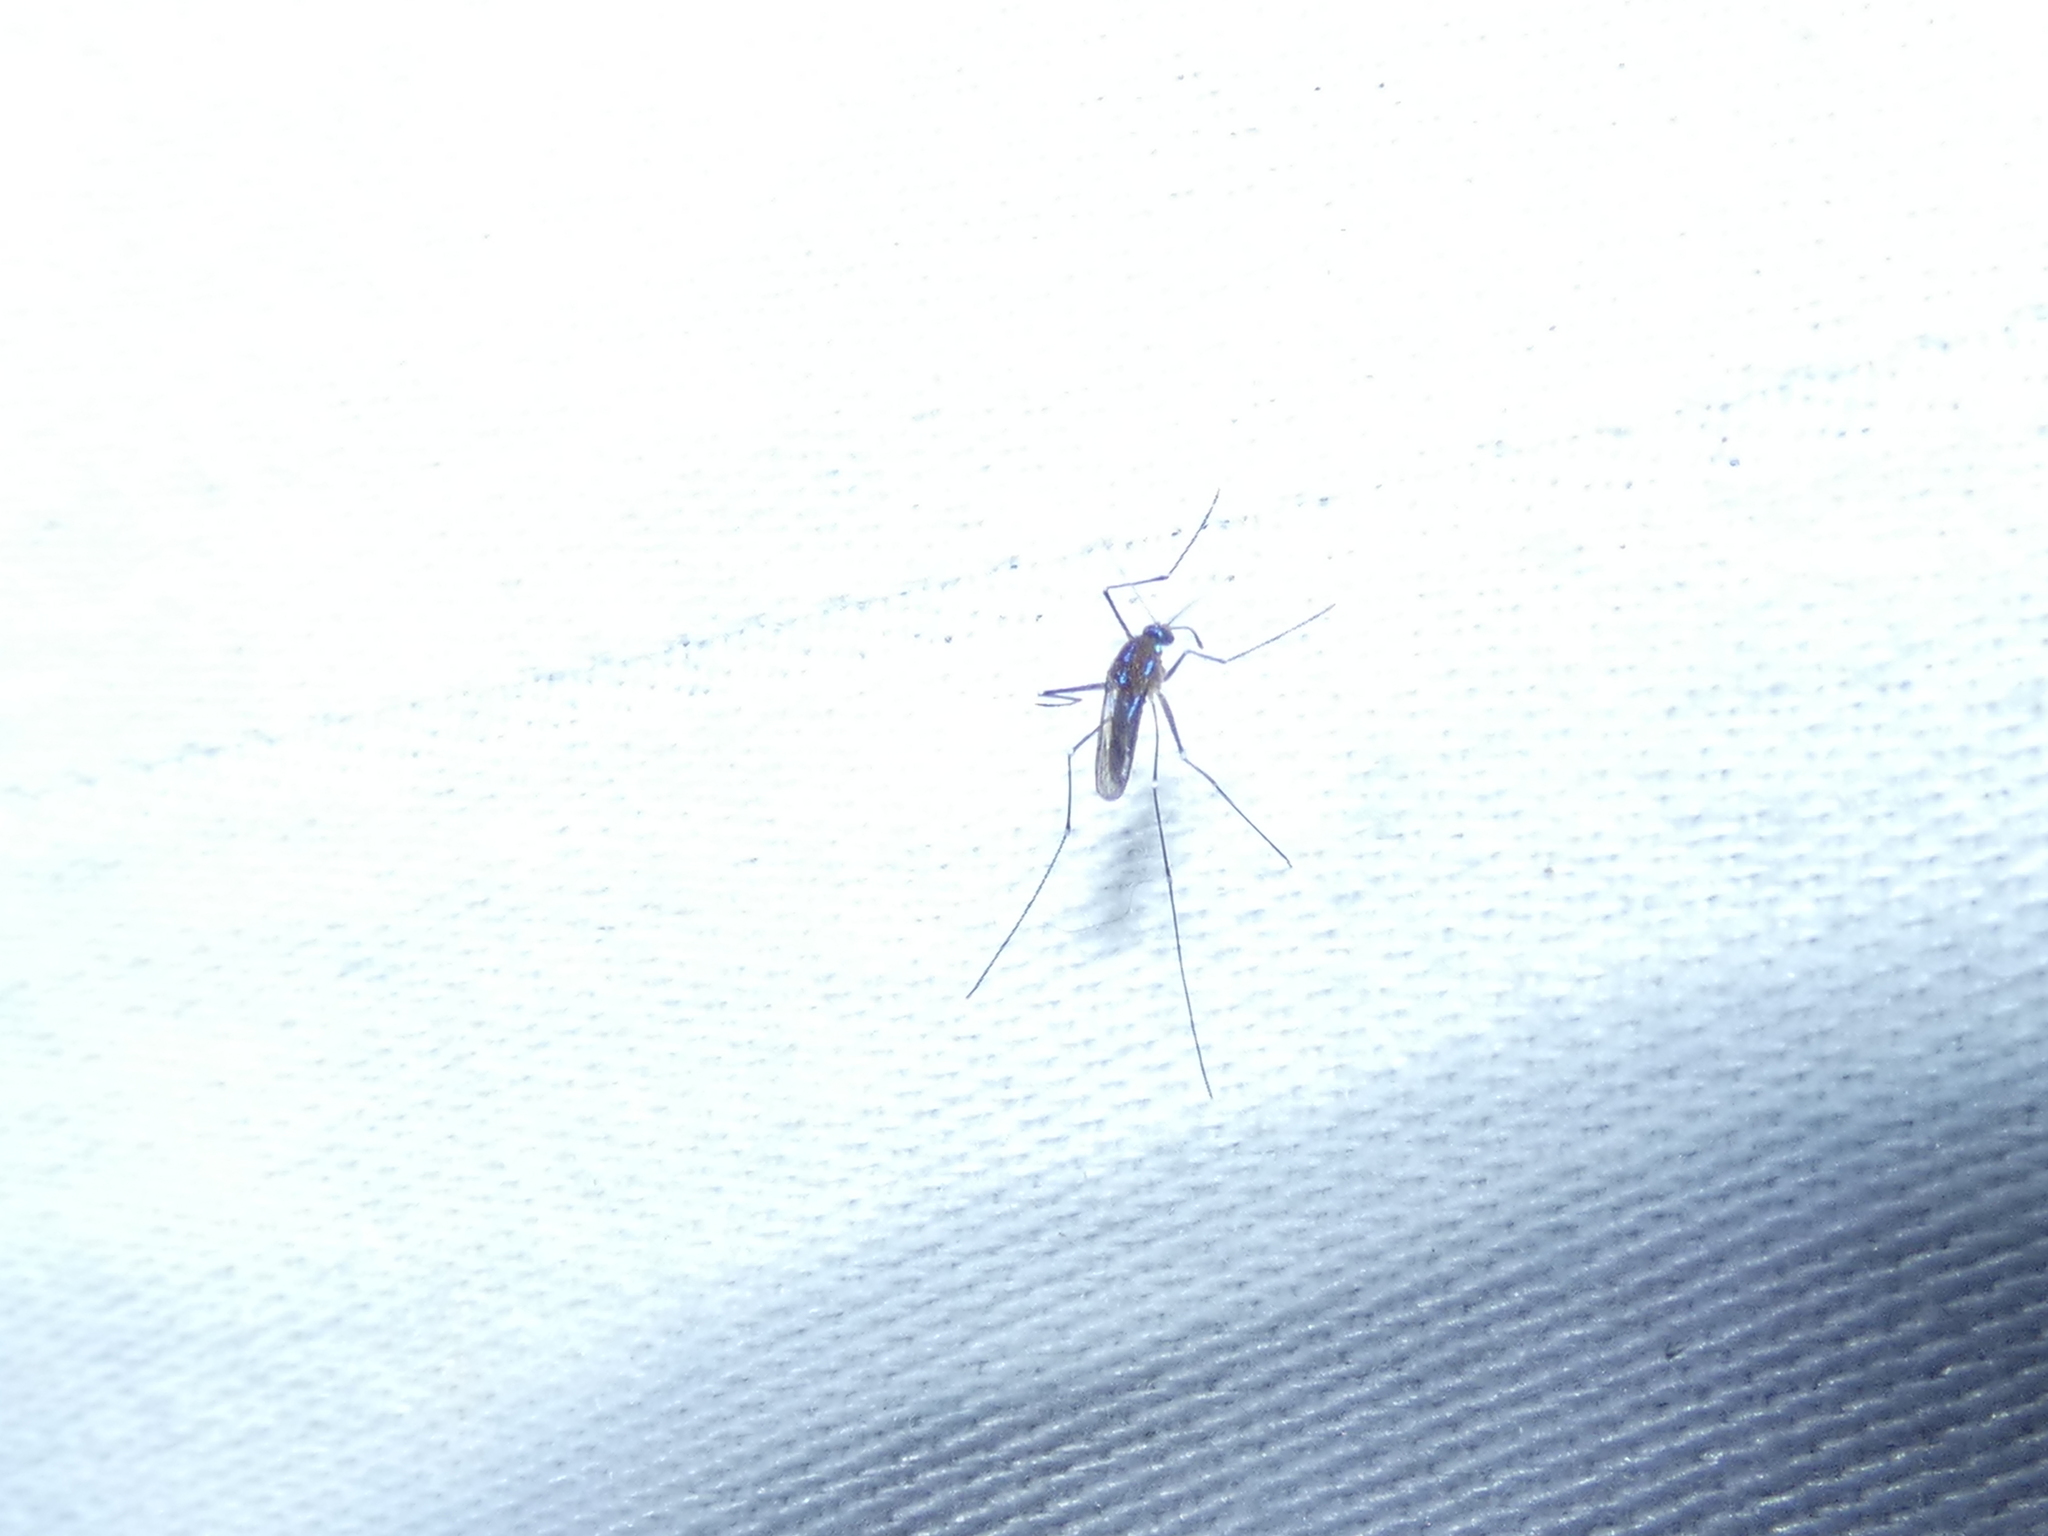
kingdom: Animalia
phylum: Arthropoda
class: Insecta
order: Diptera
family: Culicidae
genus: Uranotaenia
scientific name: Uranotaenia sapphirina
